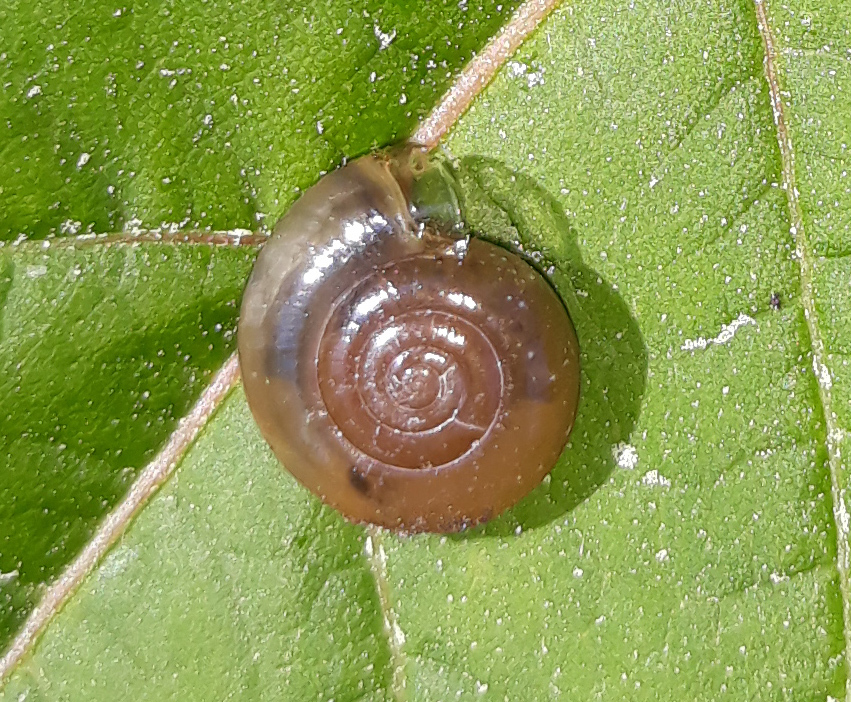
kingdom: Animalia
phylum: Mollusca
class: Gastropoda
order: Stylommatophora
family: Oxychilidae
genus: Oxychilus
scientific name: Oxychilus draparnaudi
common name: Draparnaud's glass snail
